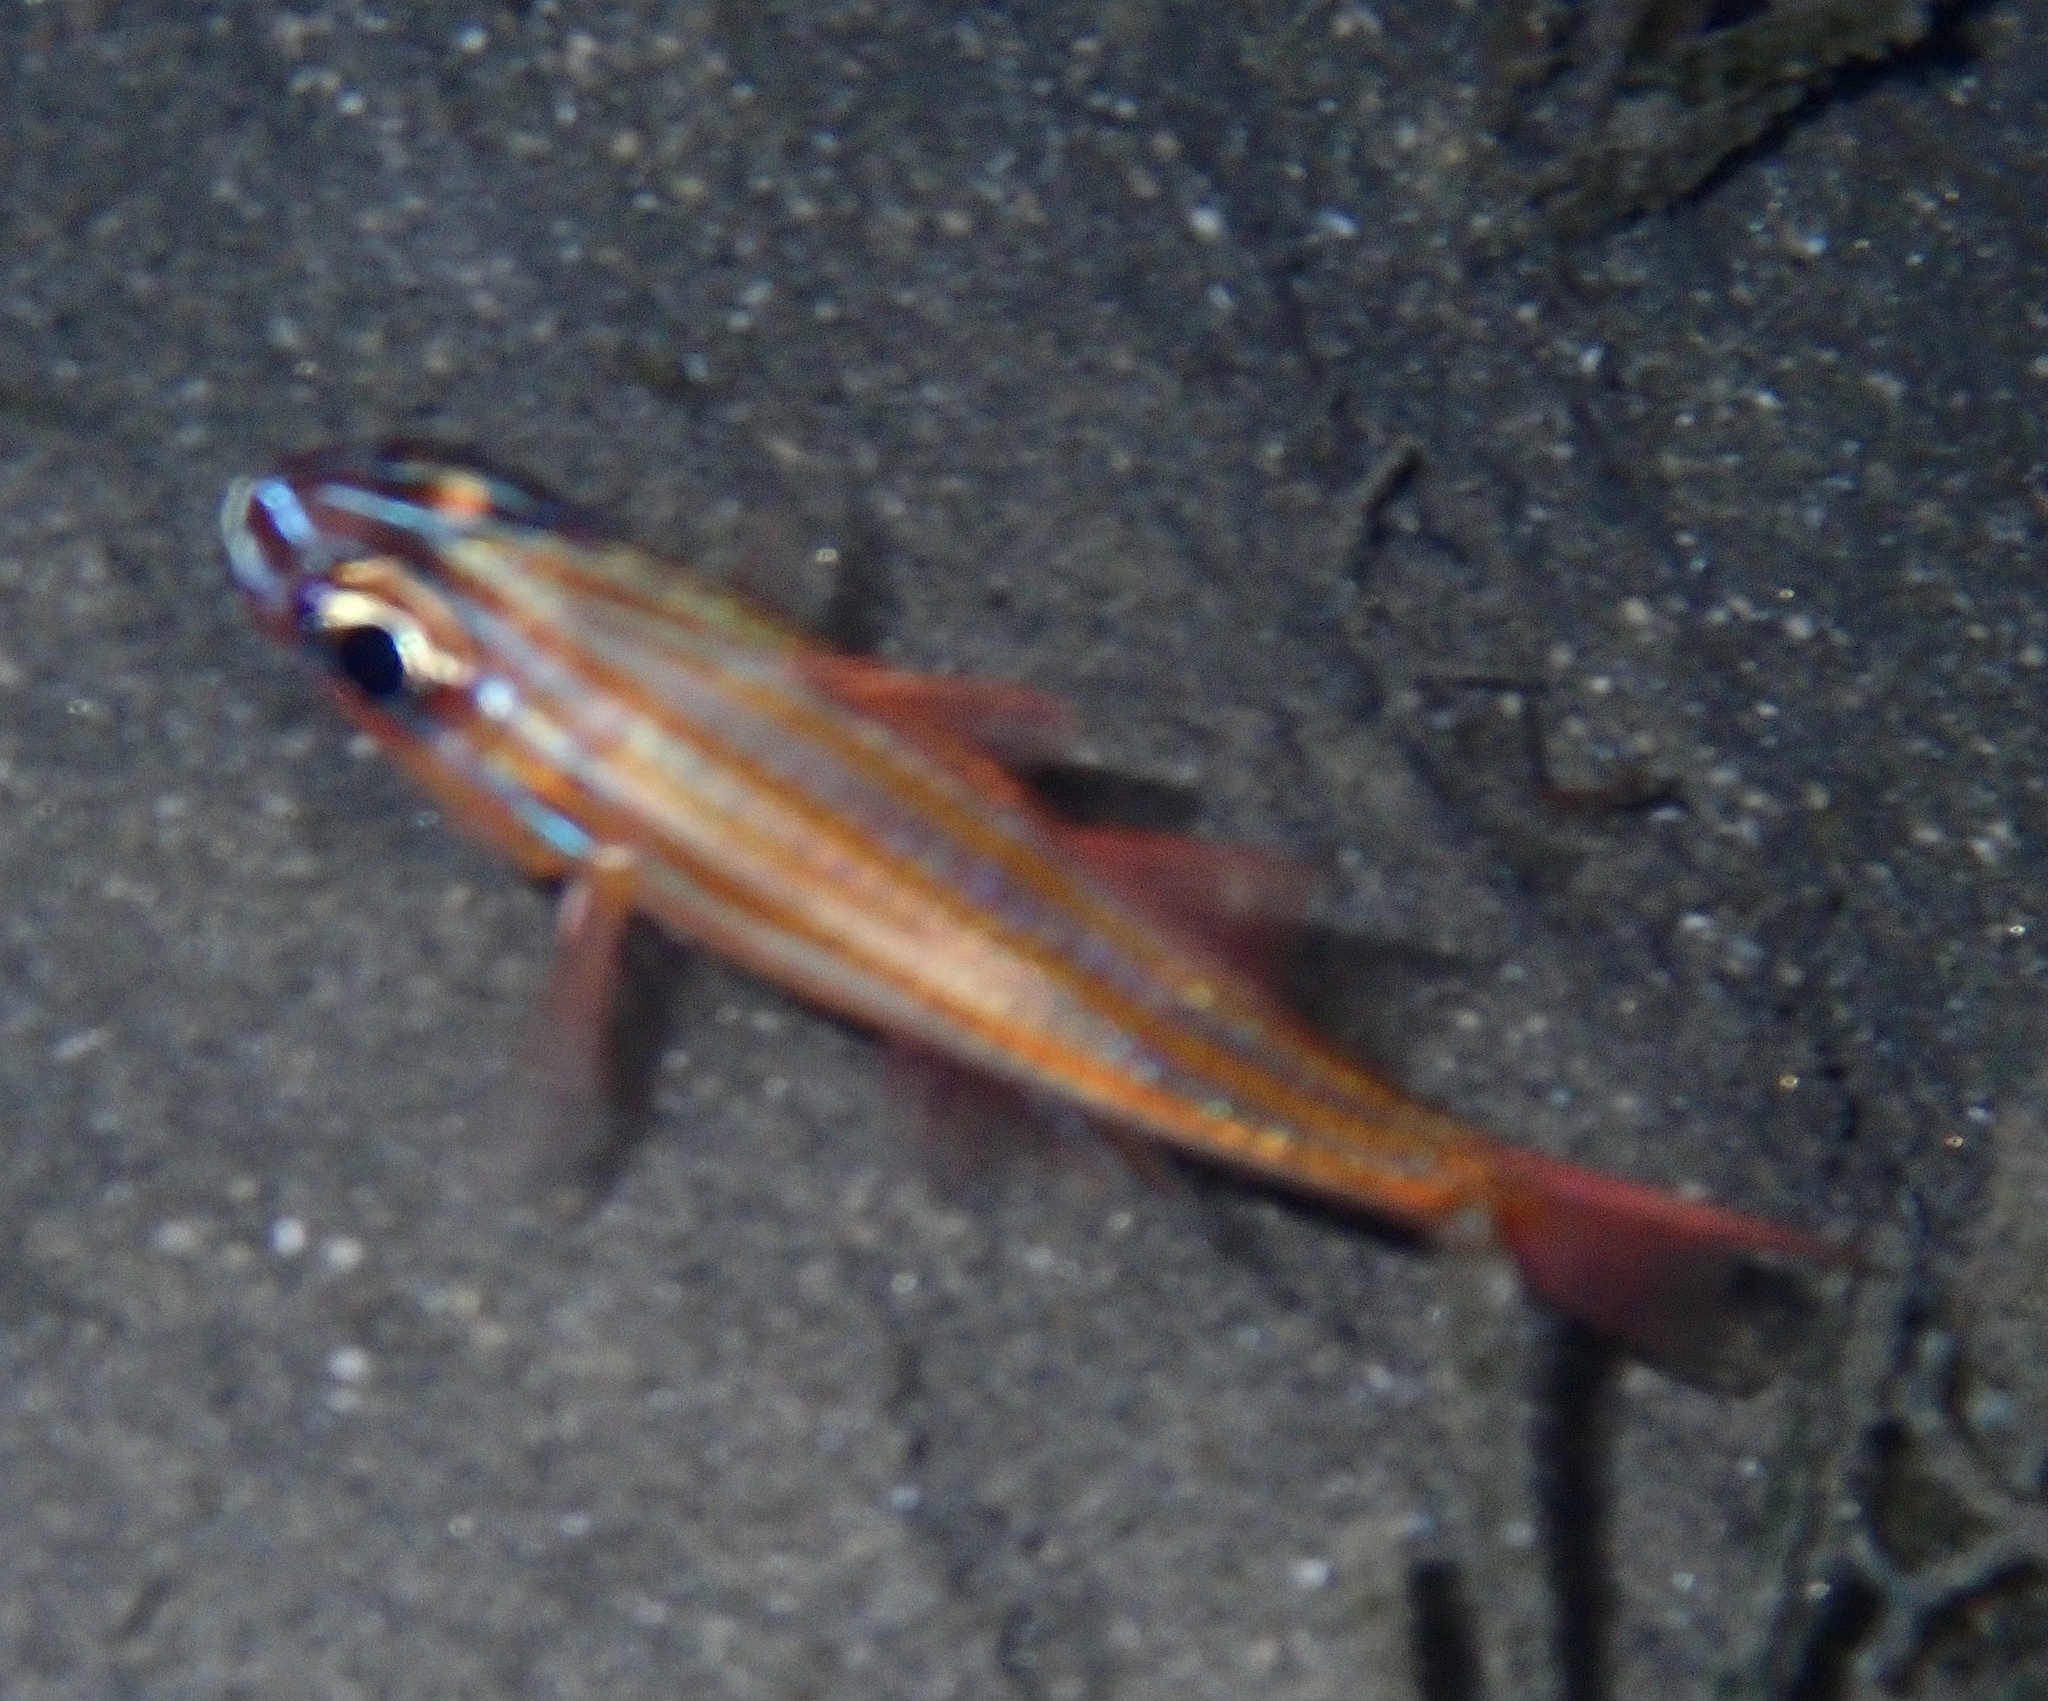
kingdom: Animalia
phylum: Chordata
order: Perciformes
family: Apogonidae
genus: Ostorhinchus
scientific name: Ostorhinchus cyanosoma
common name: Yellow-striped cardinalfish
